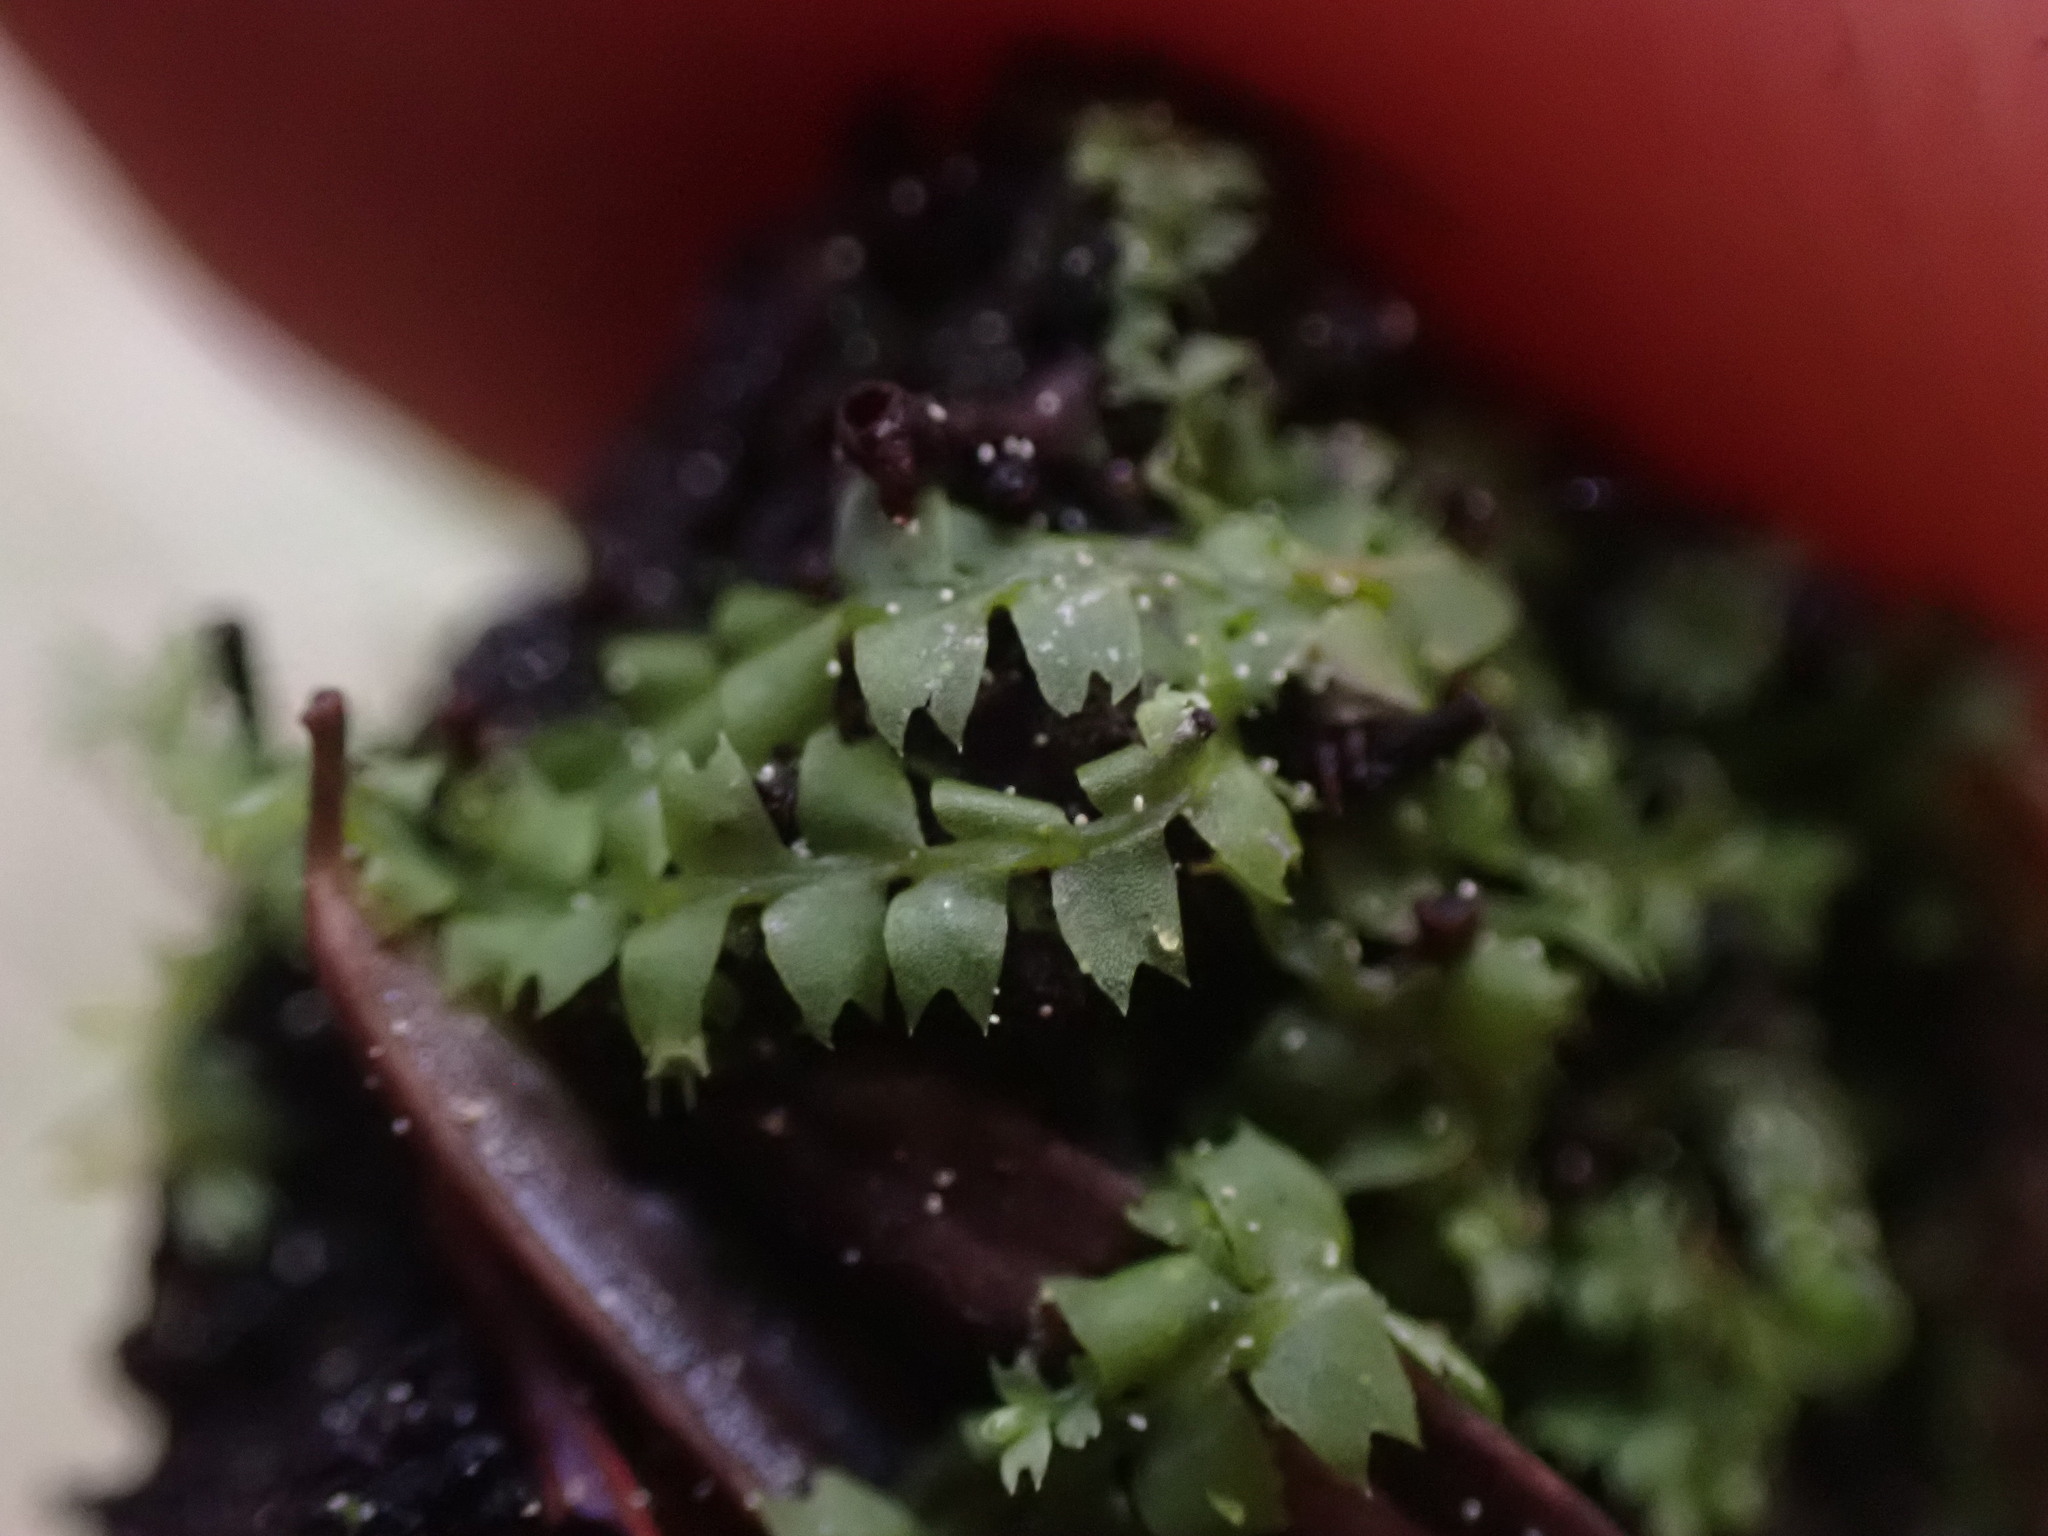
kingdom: Plantae
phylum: Marchantiophyta
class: Jungermanniopsida
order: Jungermanniales
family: Lophocoleaceae
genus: Lophocolea
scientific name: Lophocolea bidentata
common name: Bifid crestwort
